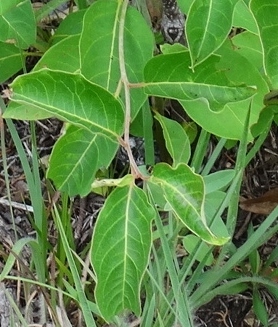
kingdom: Plantae
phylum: Tracheophyta
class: Magnoliopsida
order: Ericales
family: Ebenaceae
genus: Diospyros
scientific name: Diospyros virginiana
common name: Persimmon
